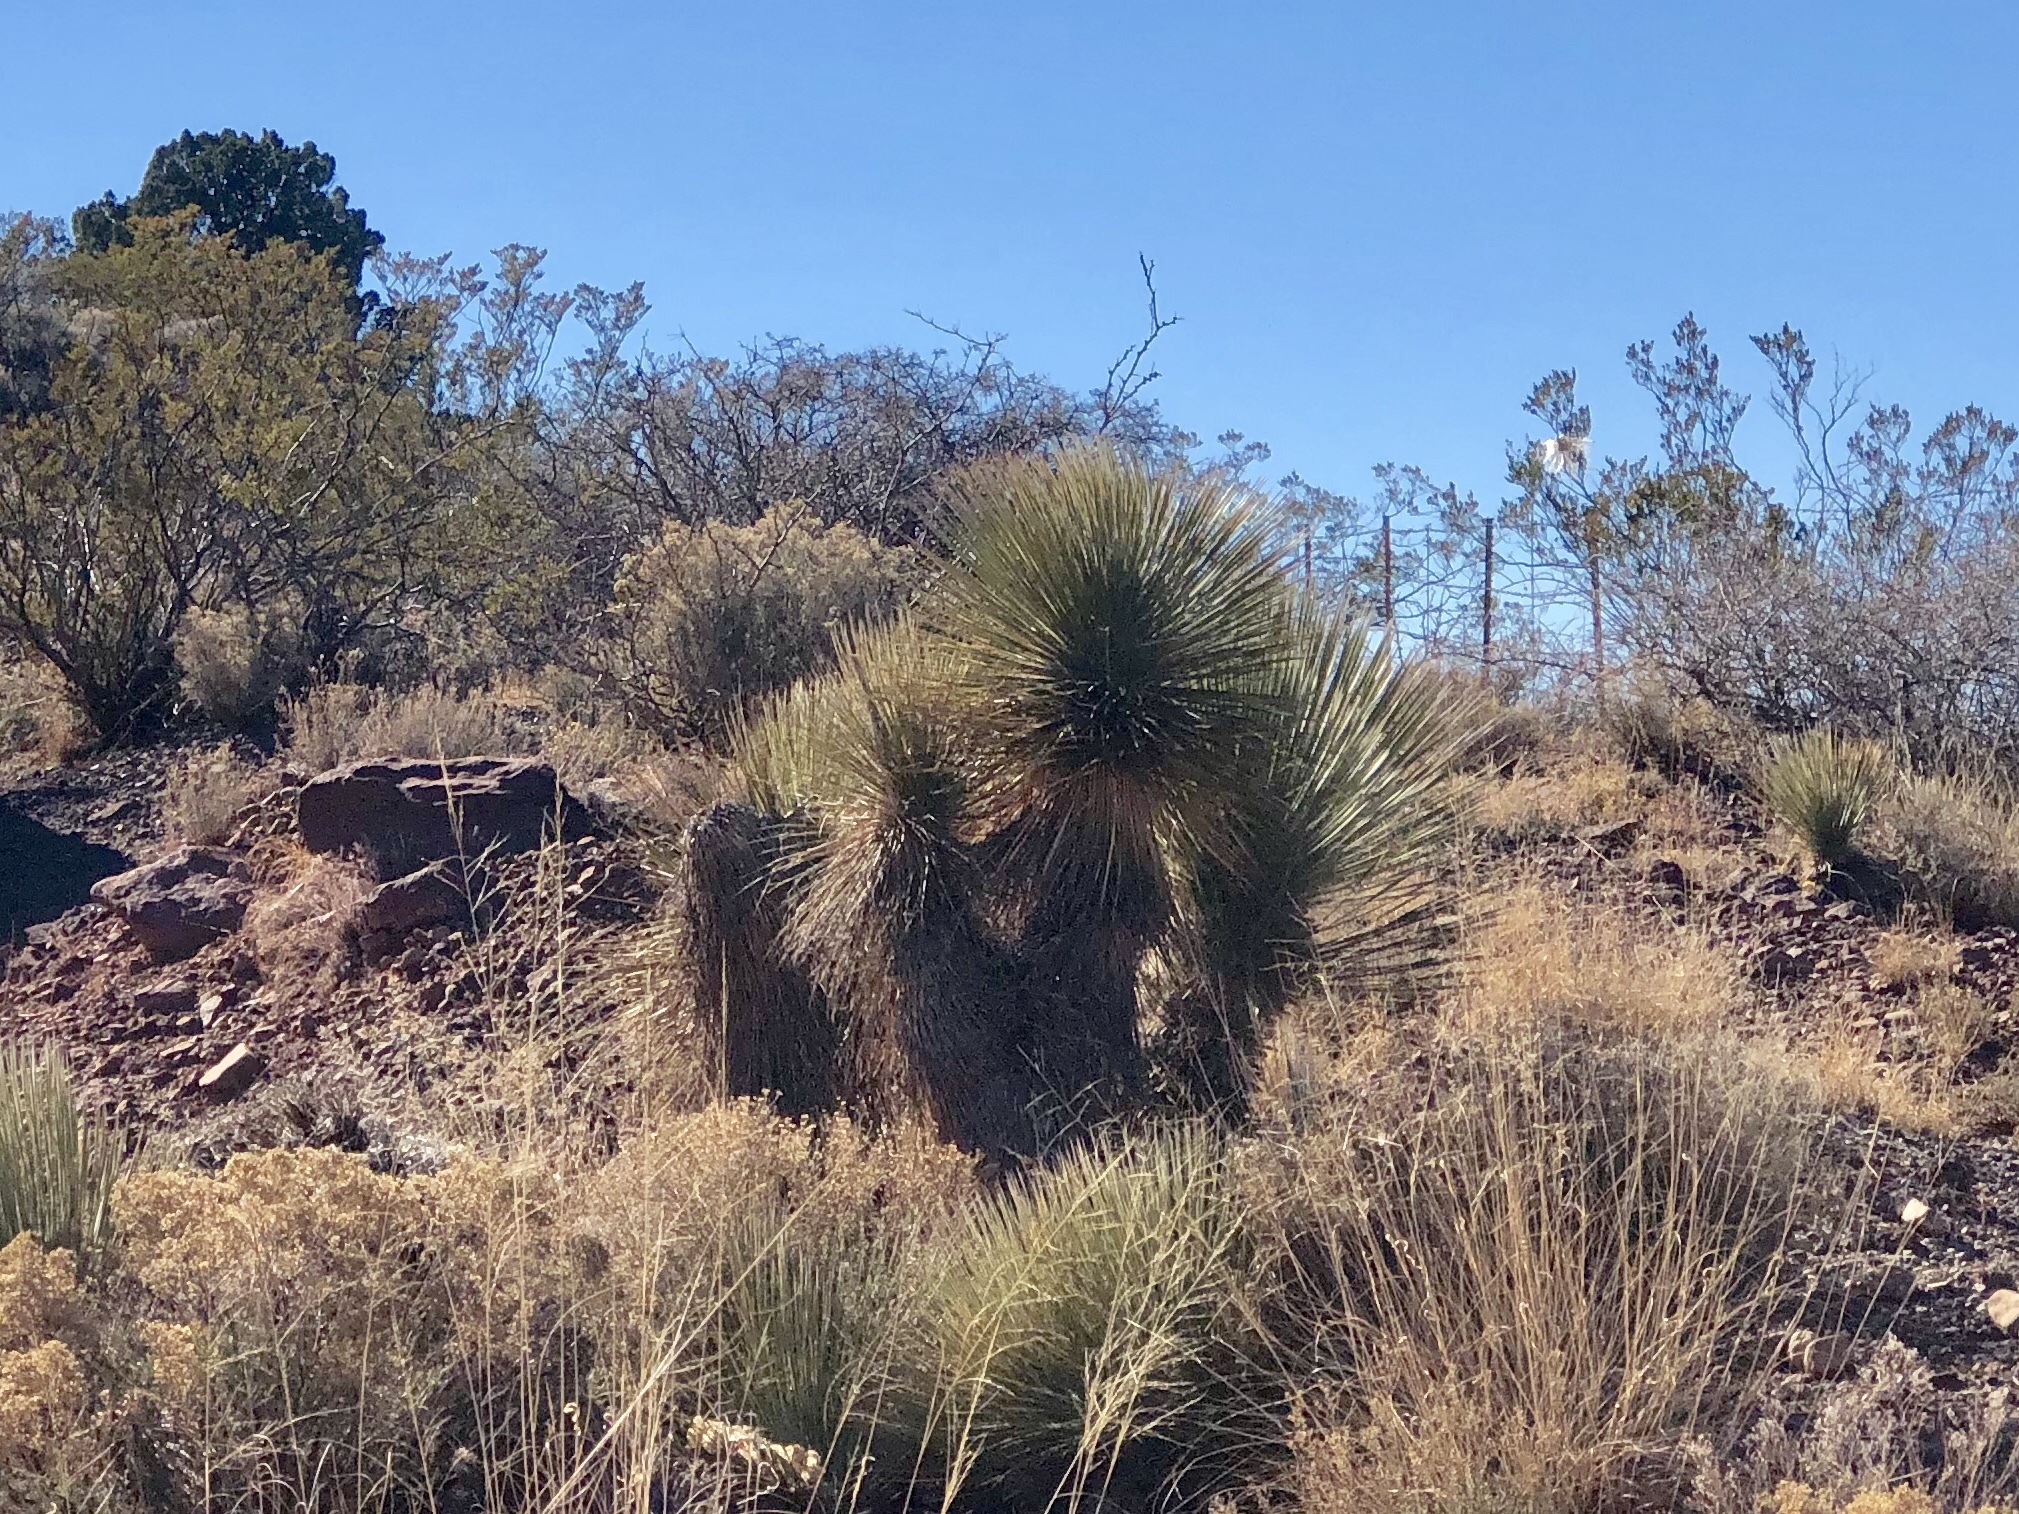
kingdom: Plantae
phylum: Tracheophyta
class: Liliopsida
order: Asparagales
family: Asparagaceae
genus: Yucca
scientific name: Yucca elata
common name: Palmella
